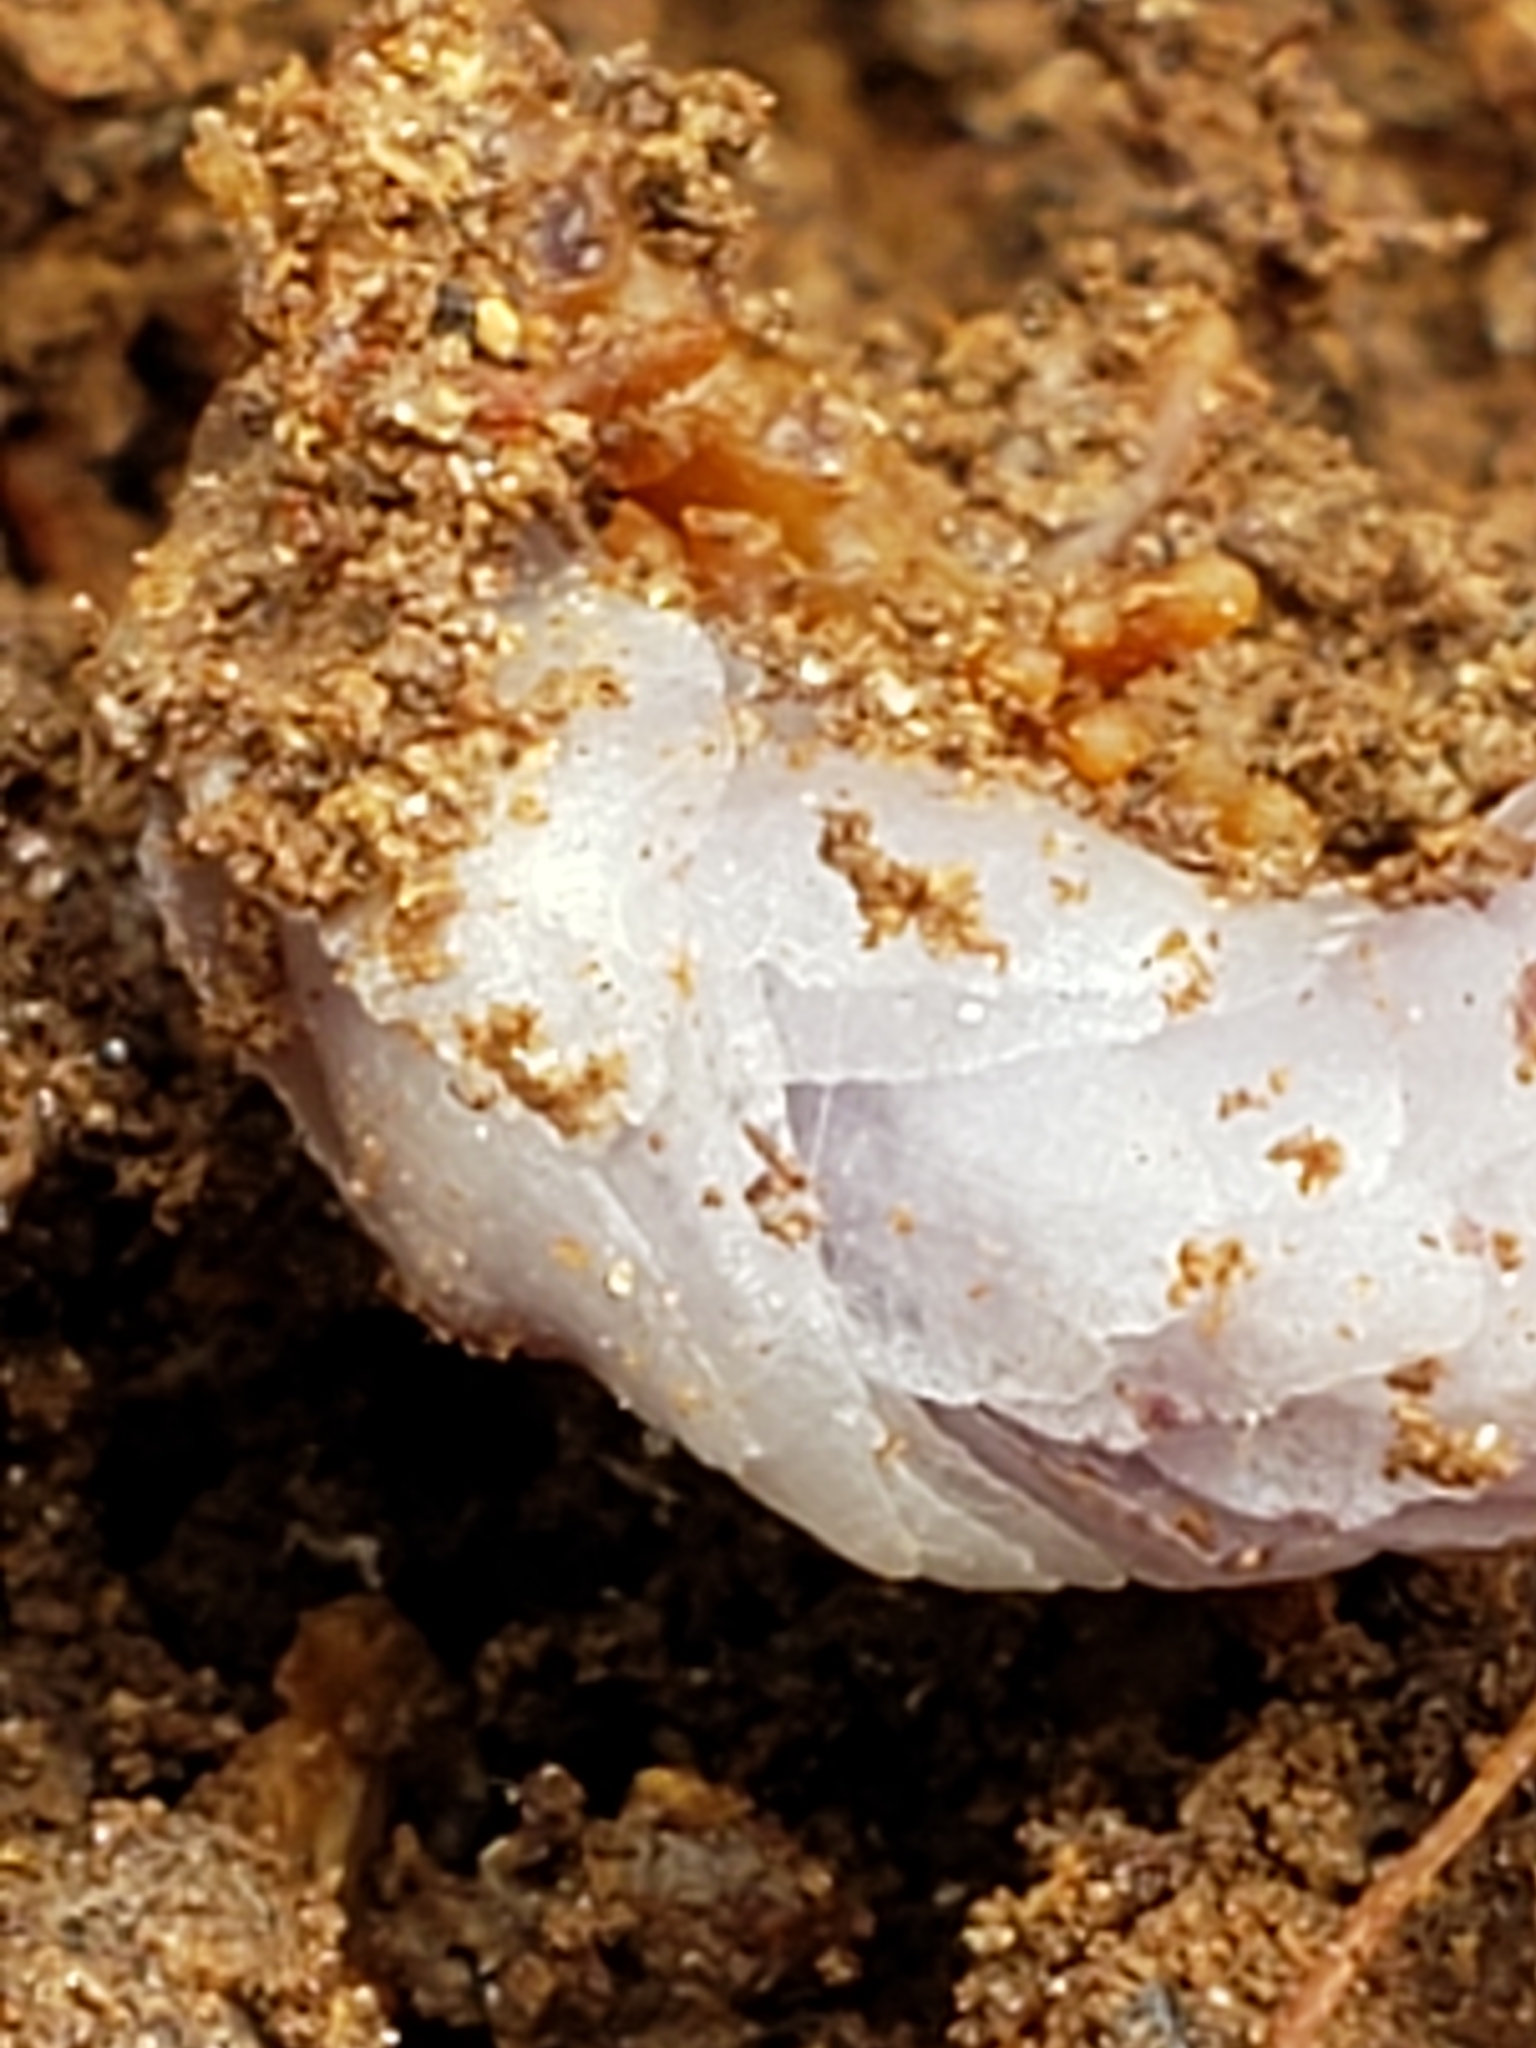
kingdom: Plantae
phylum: Tracheophyta
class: Magnoliopsida
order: Ericales
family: Ericaceae
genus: Monotropa
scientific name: Monotropa uniflora
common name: Convulsion root
